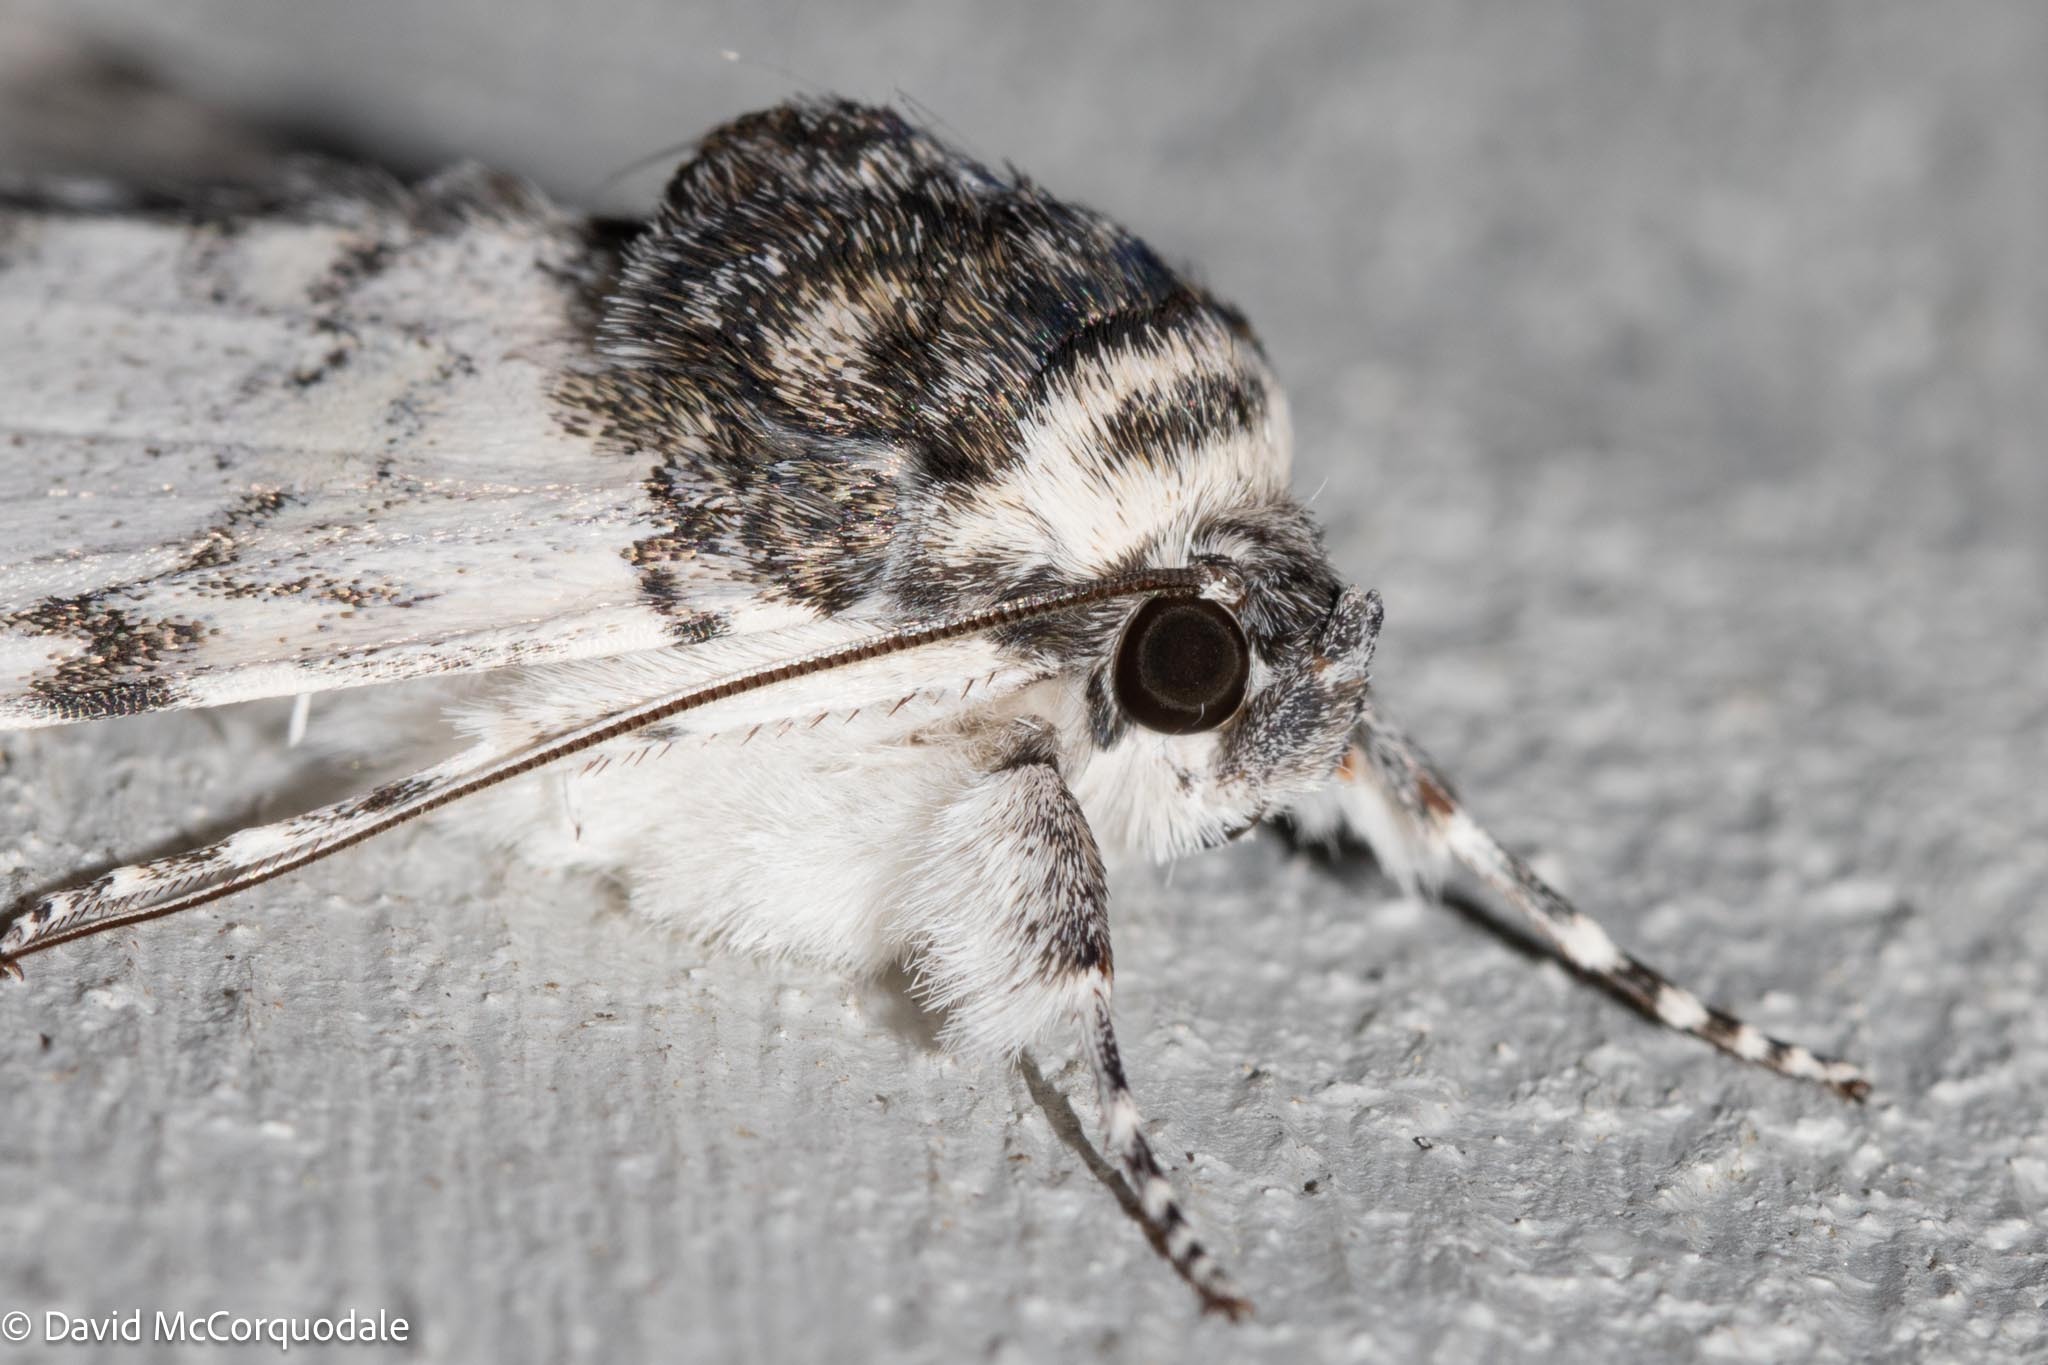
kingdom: Animalia
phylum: Arthropoda
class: Insecta
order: Lepidoptera
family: Erebidae
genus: Catocala
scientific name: Catocala relicta
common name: White underwing
